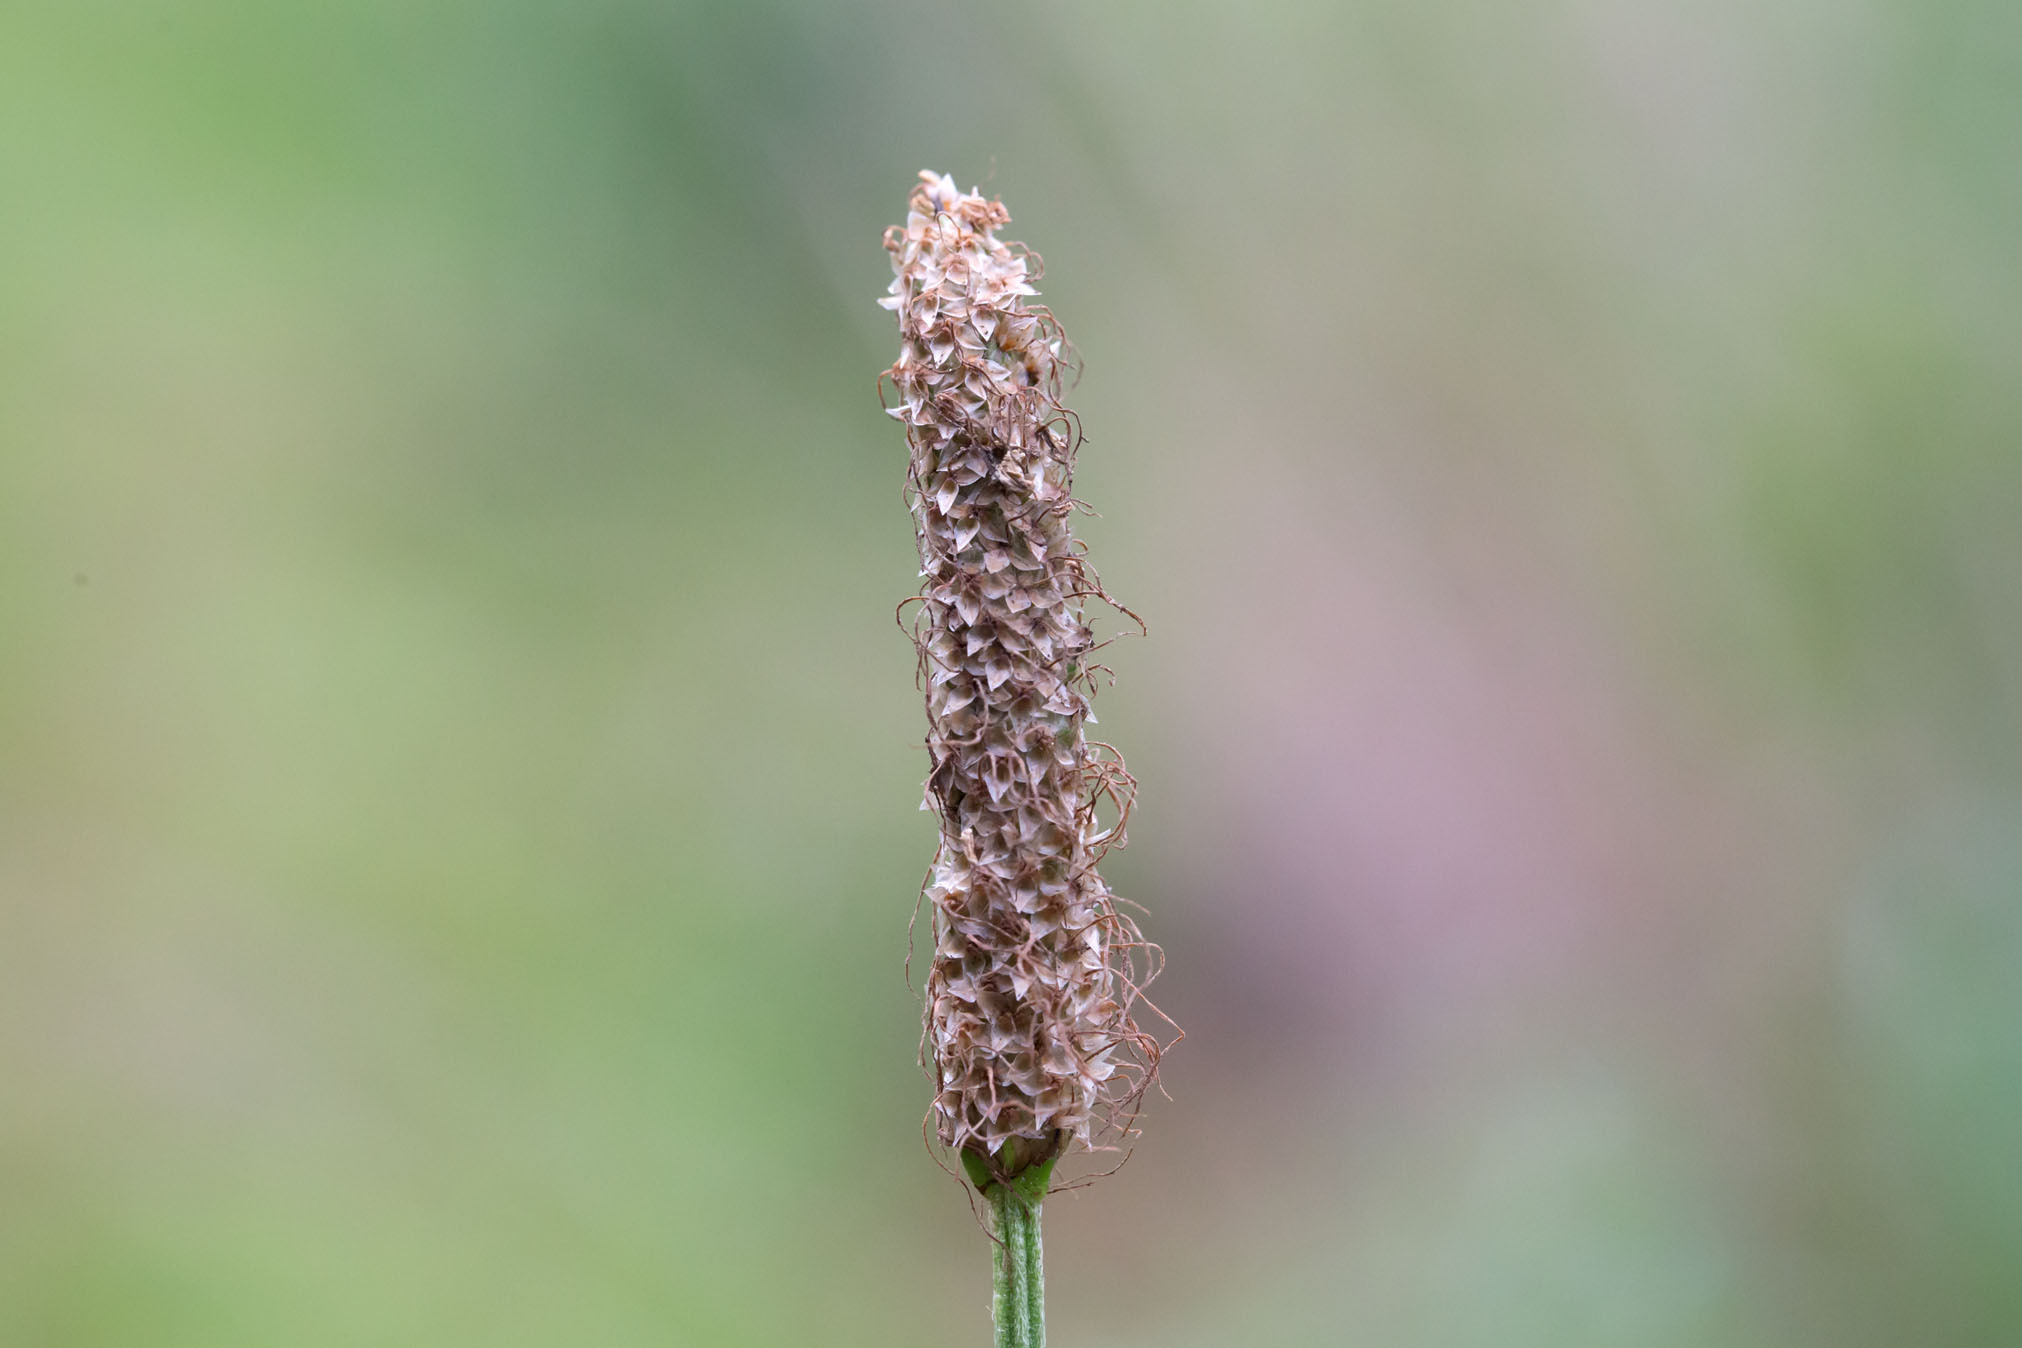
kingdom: Plantae
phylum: Tracheophyta
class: Magnoliopsida
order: Lamiales
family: Plantaginaceae
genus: Plantago
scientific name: Plantago lanceolata
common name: Ribwort plantain
